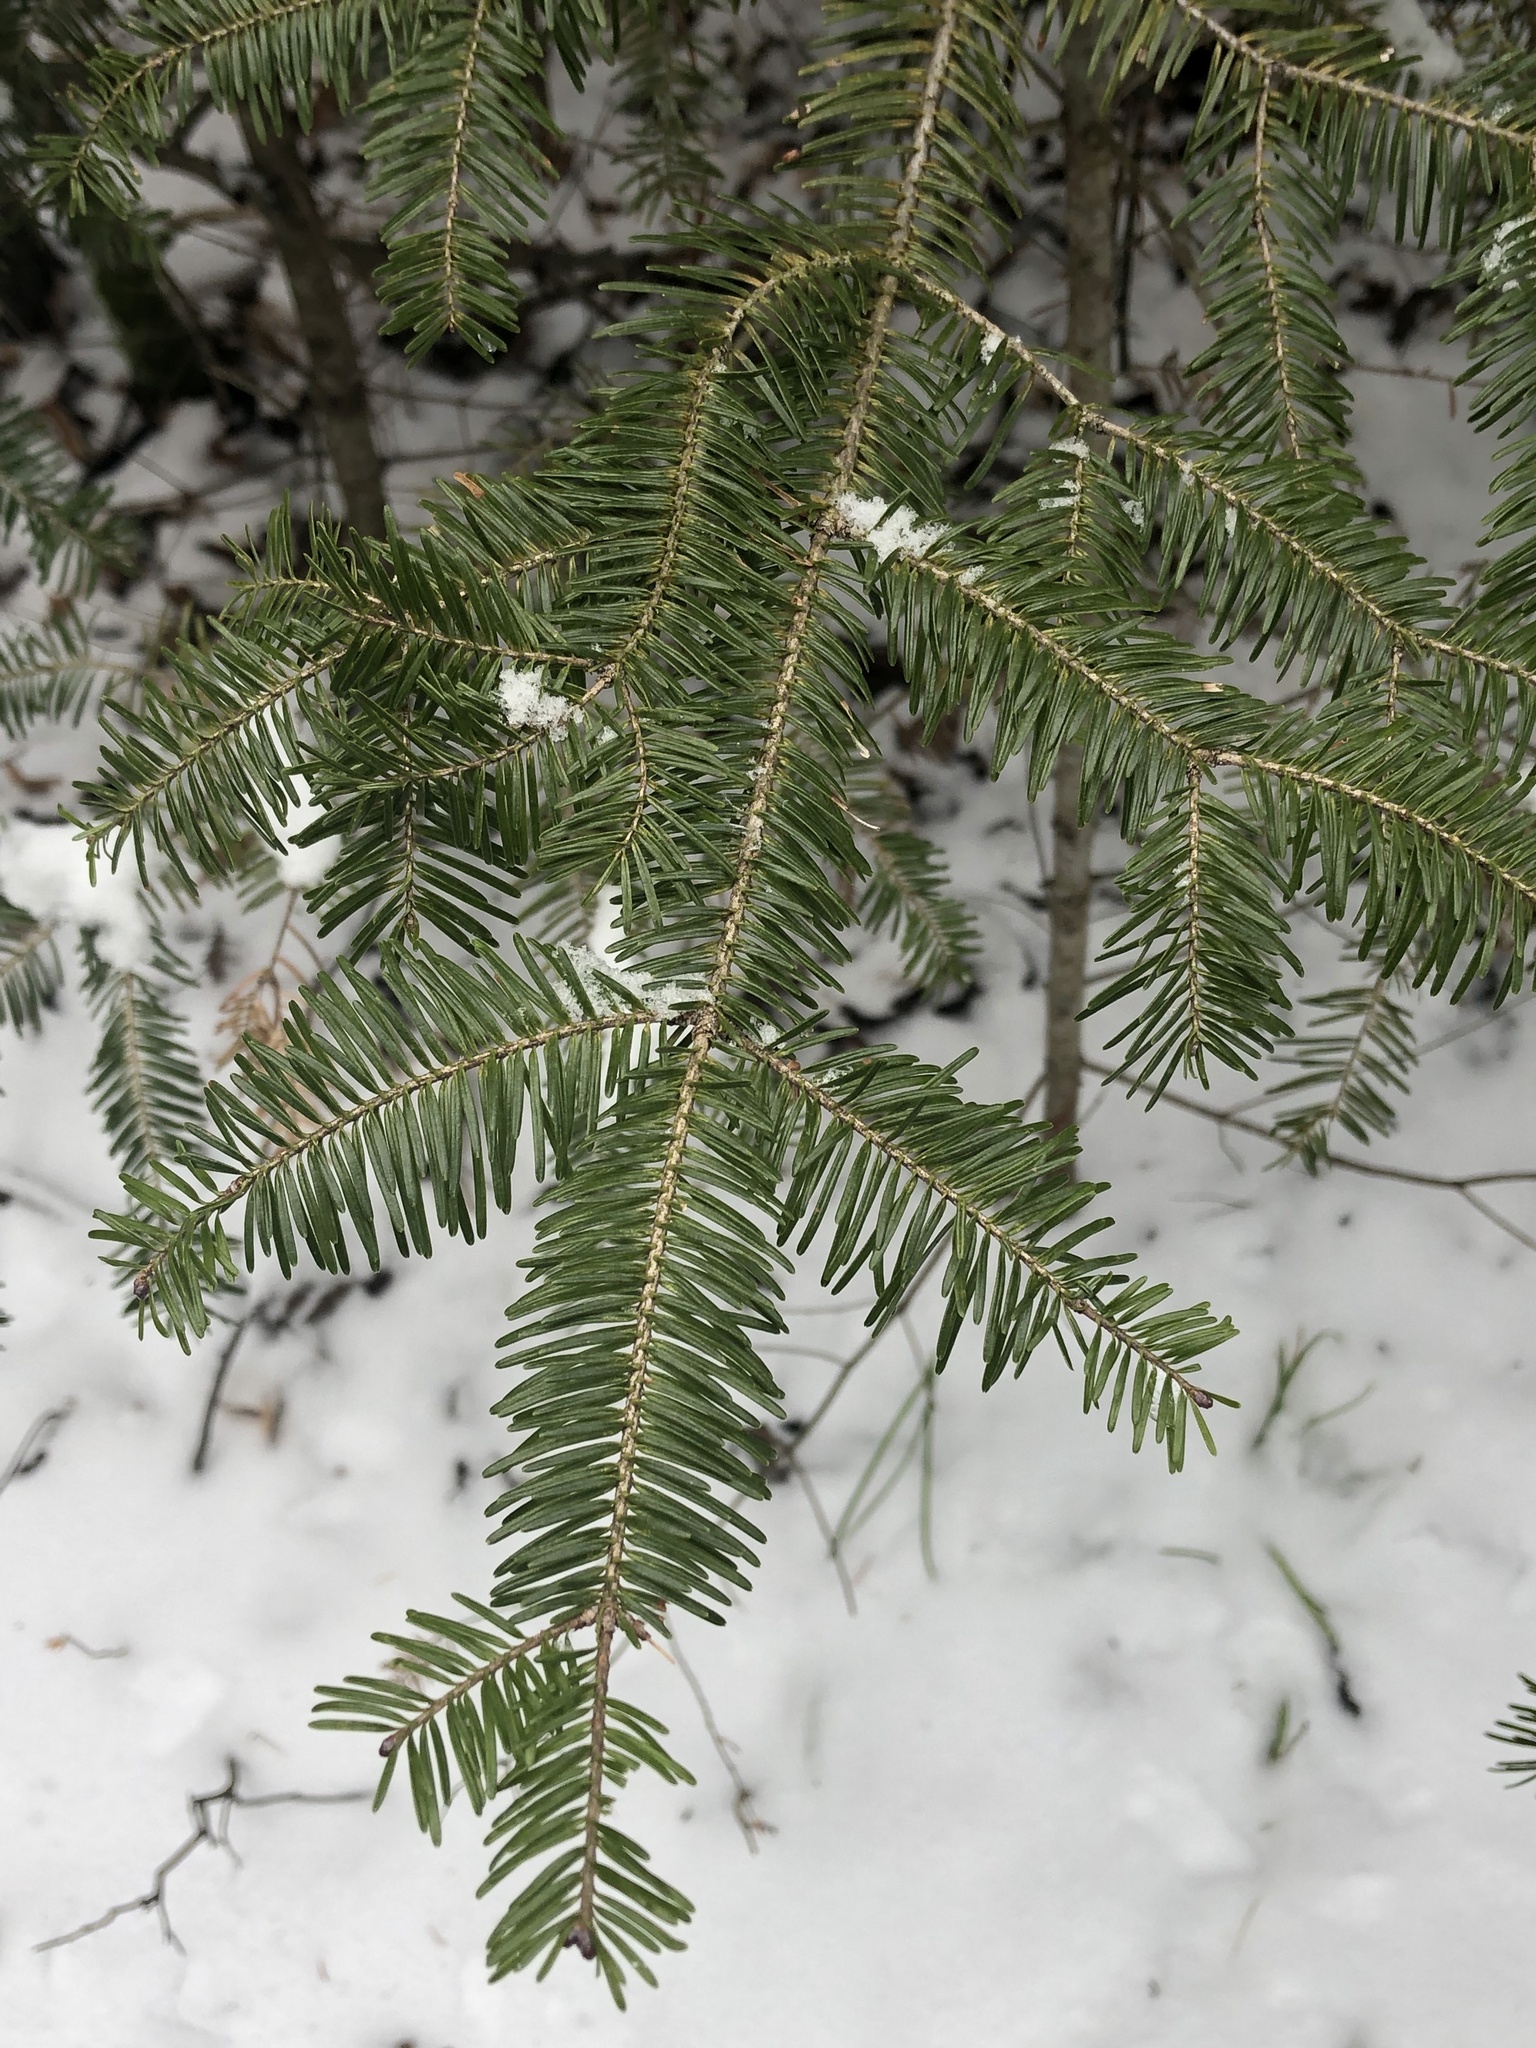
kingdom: Plantae
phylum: Tracheophyta
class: Pinopsida
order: Pinales
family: Pinaceae
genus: Abies
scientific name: Abies balsamea
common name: Balsam fir
